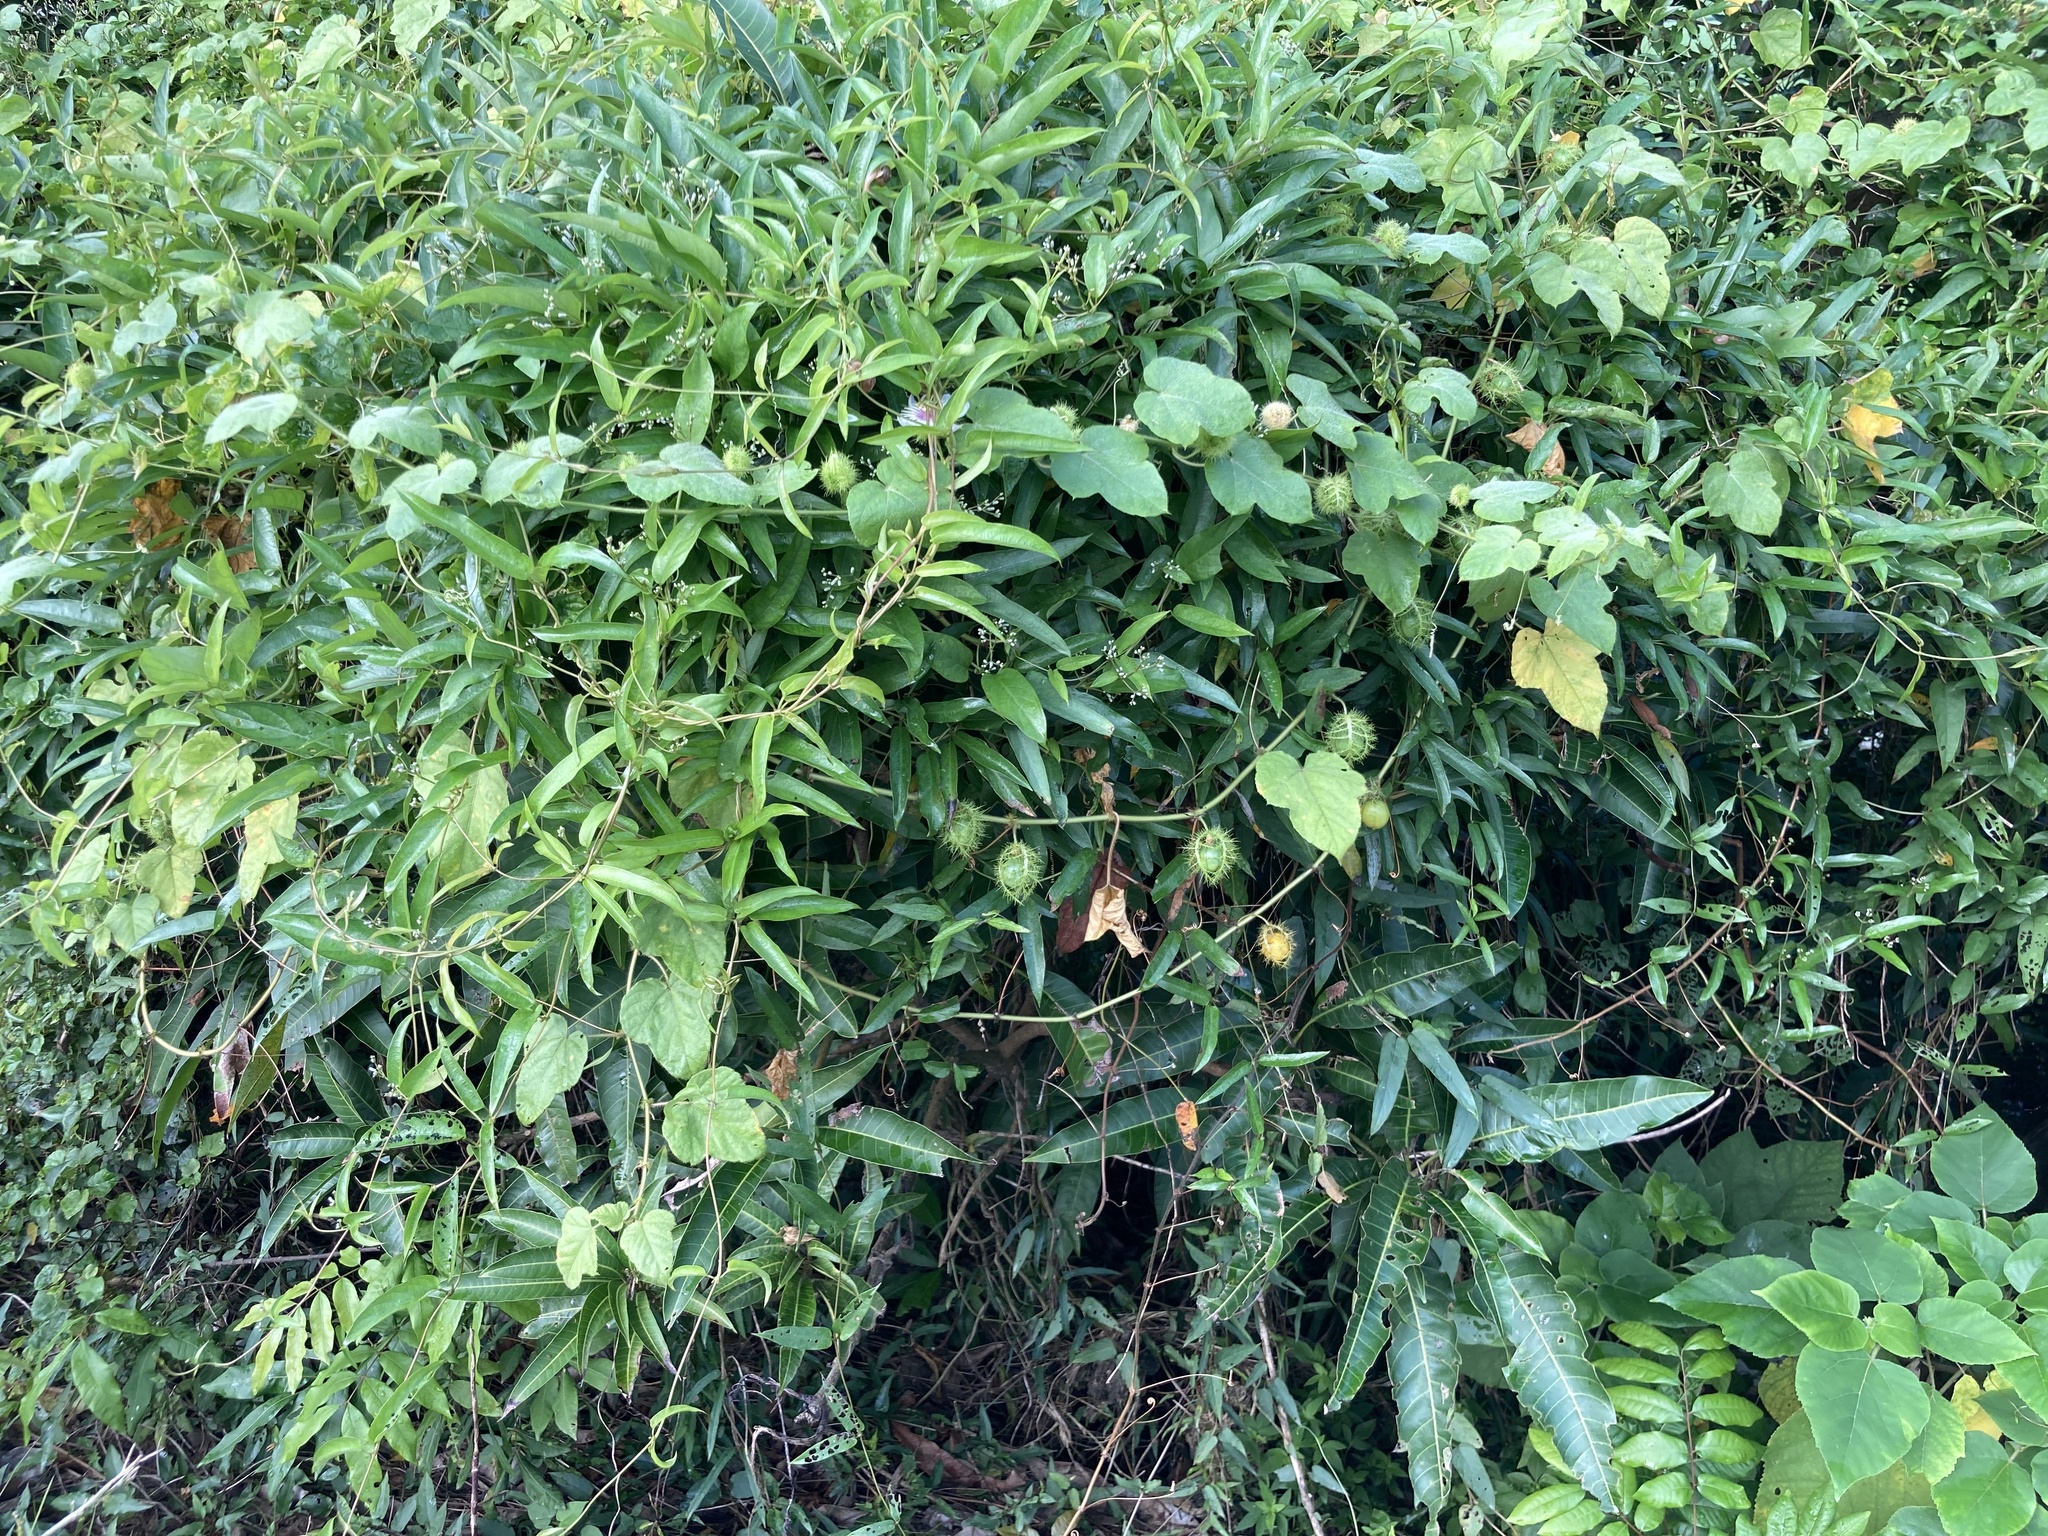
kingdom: Plantae
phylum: Tracheophyta
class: Magnoliopsida
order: Malpighiales
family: Passifloraceae
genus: Passiflora
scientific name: Passiflora vesicaria
